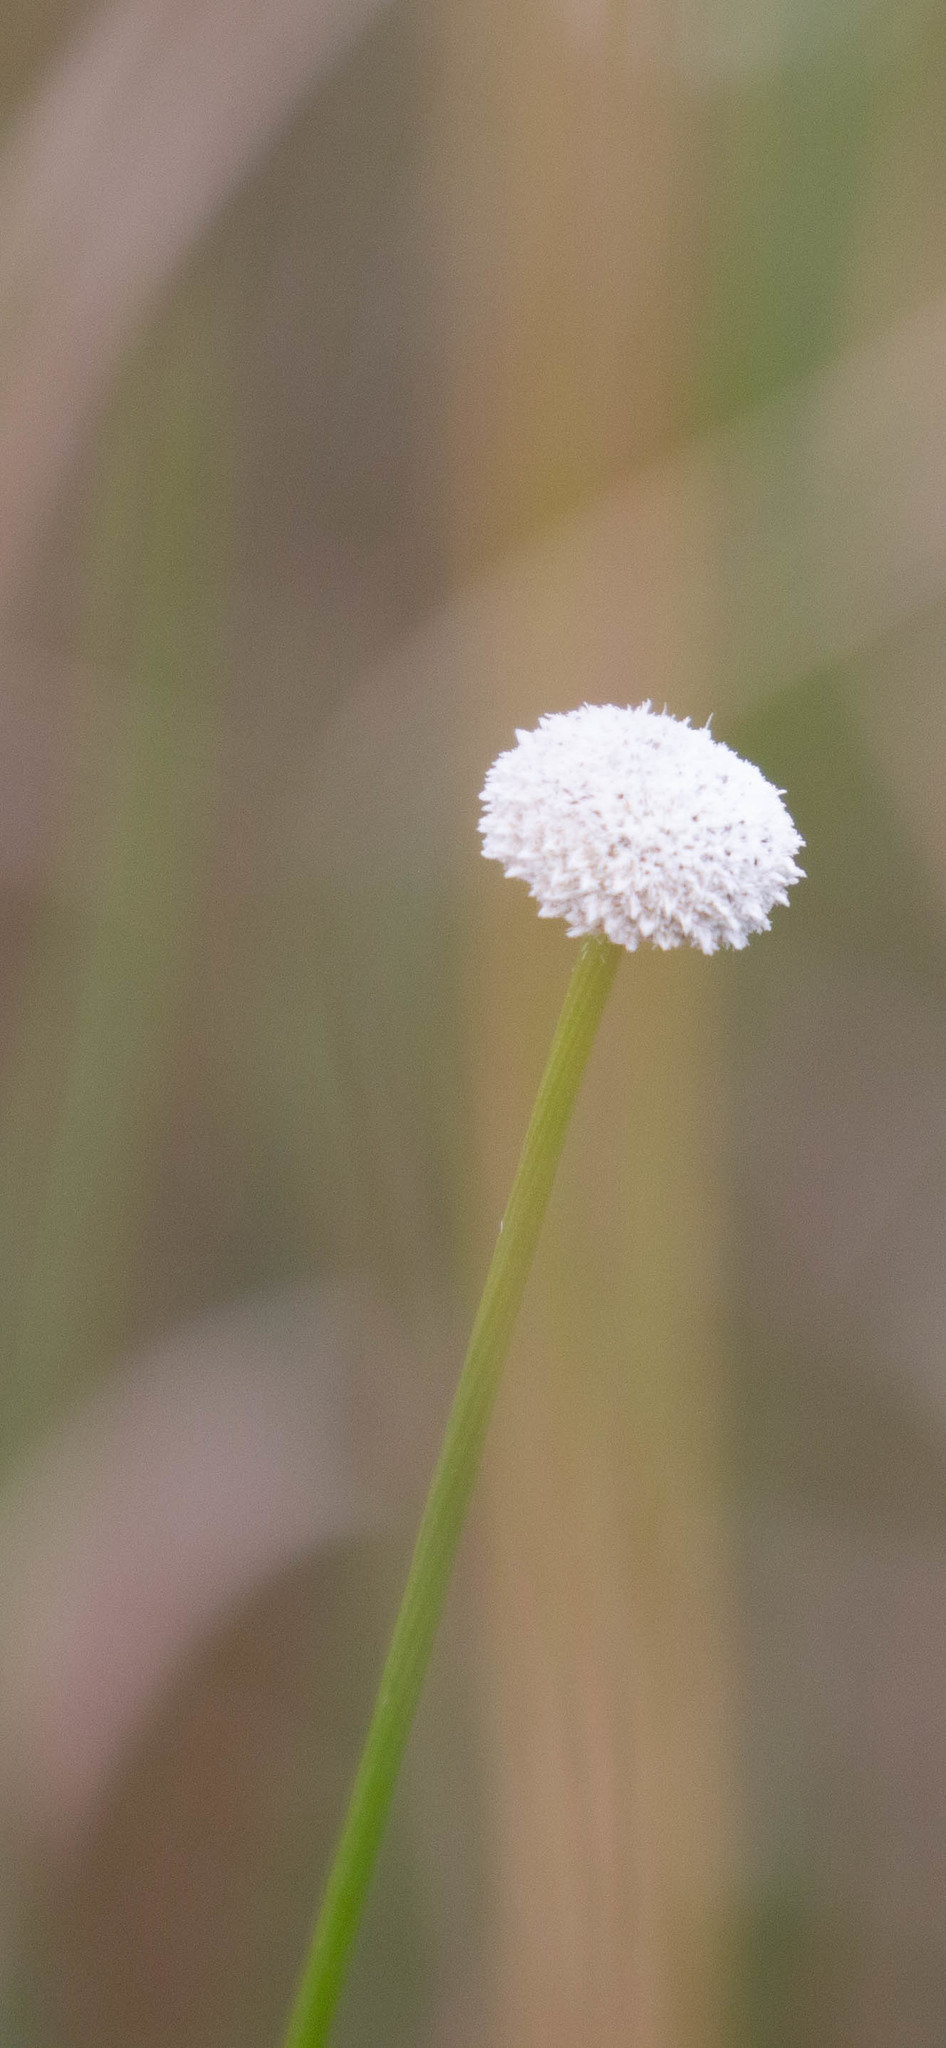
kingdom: Plantae
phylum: Tracheophyta
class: Liliopsida
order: Poales
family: Eriocaulaceae
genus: Eriocaulon
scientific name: Eriocaulon compressum
